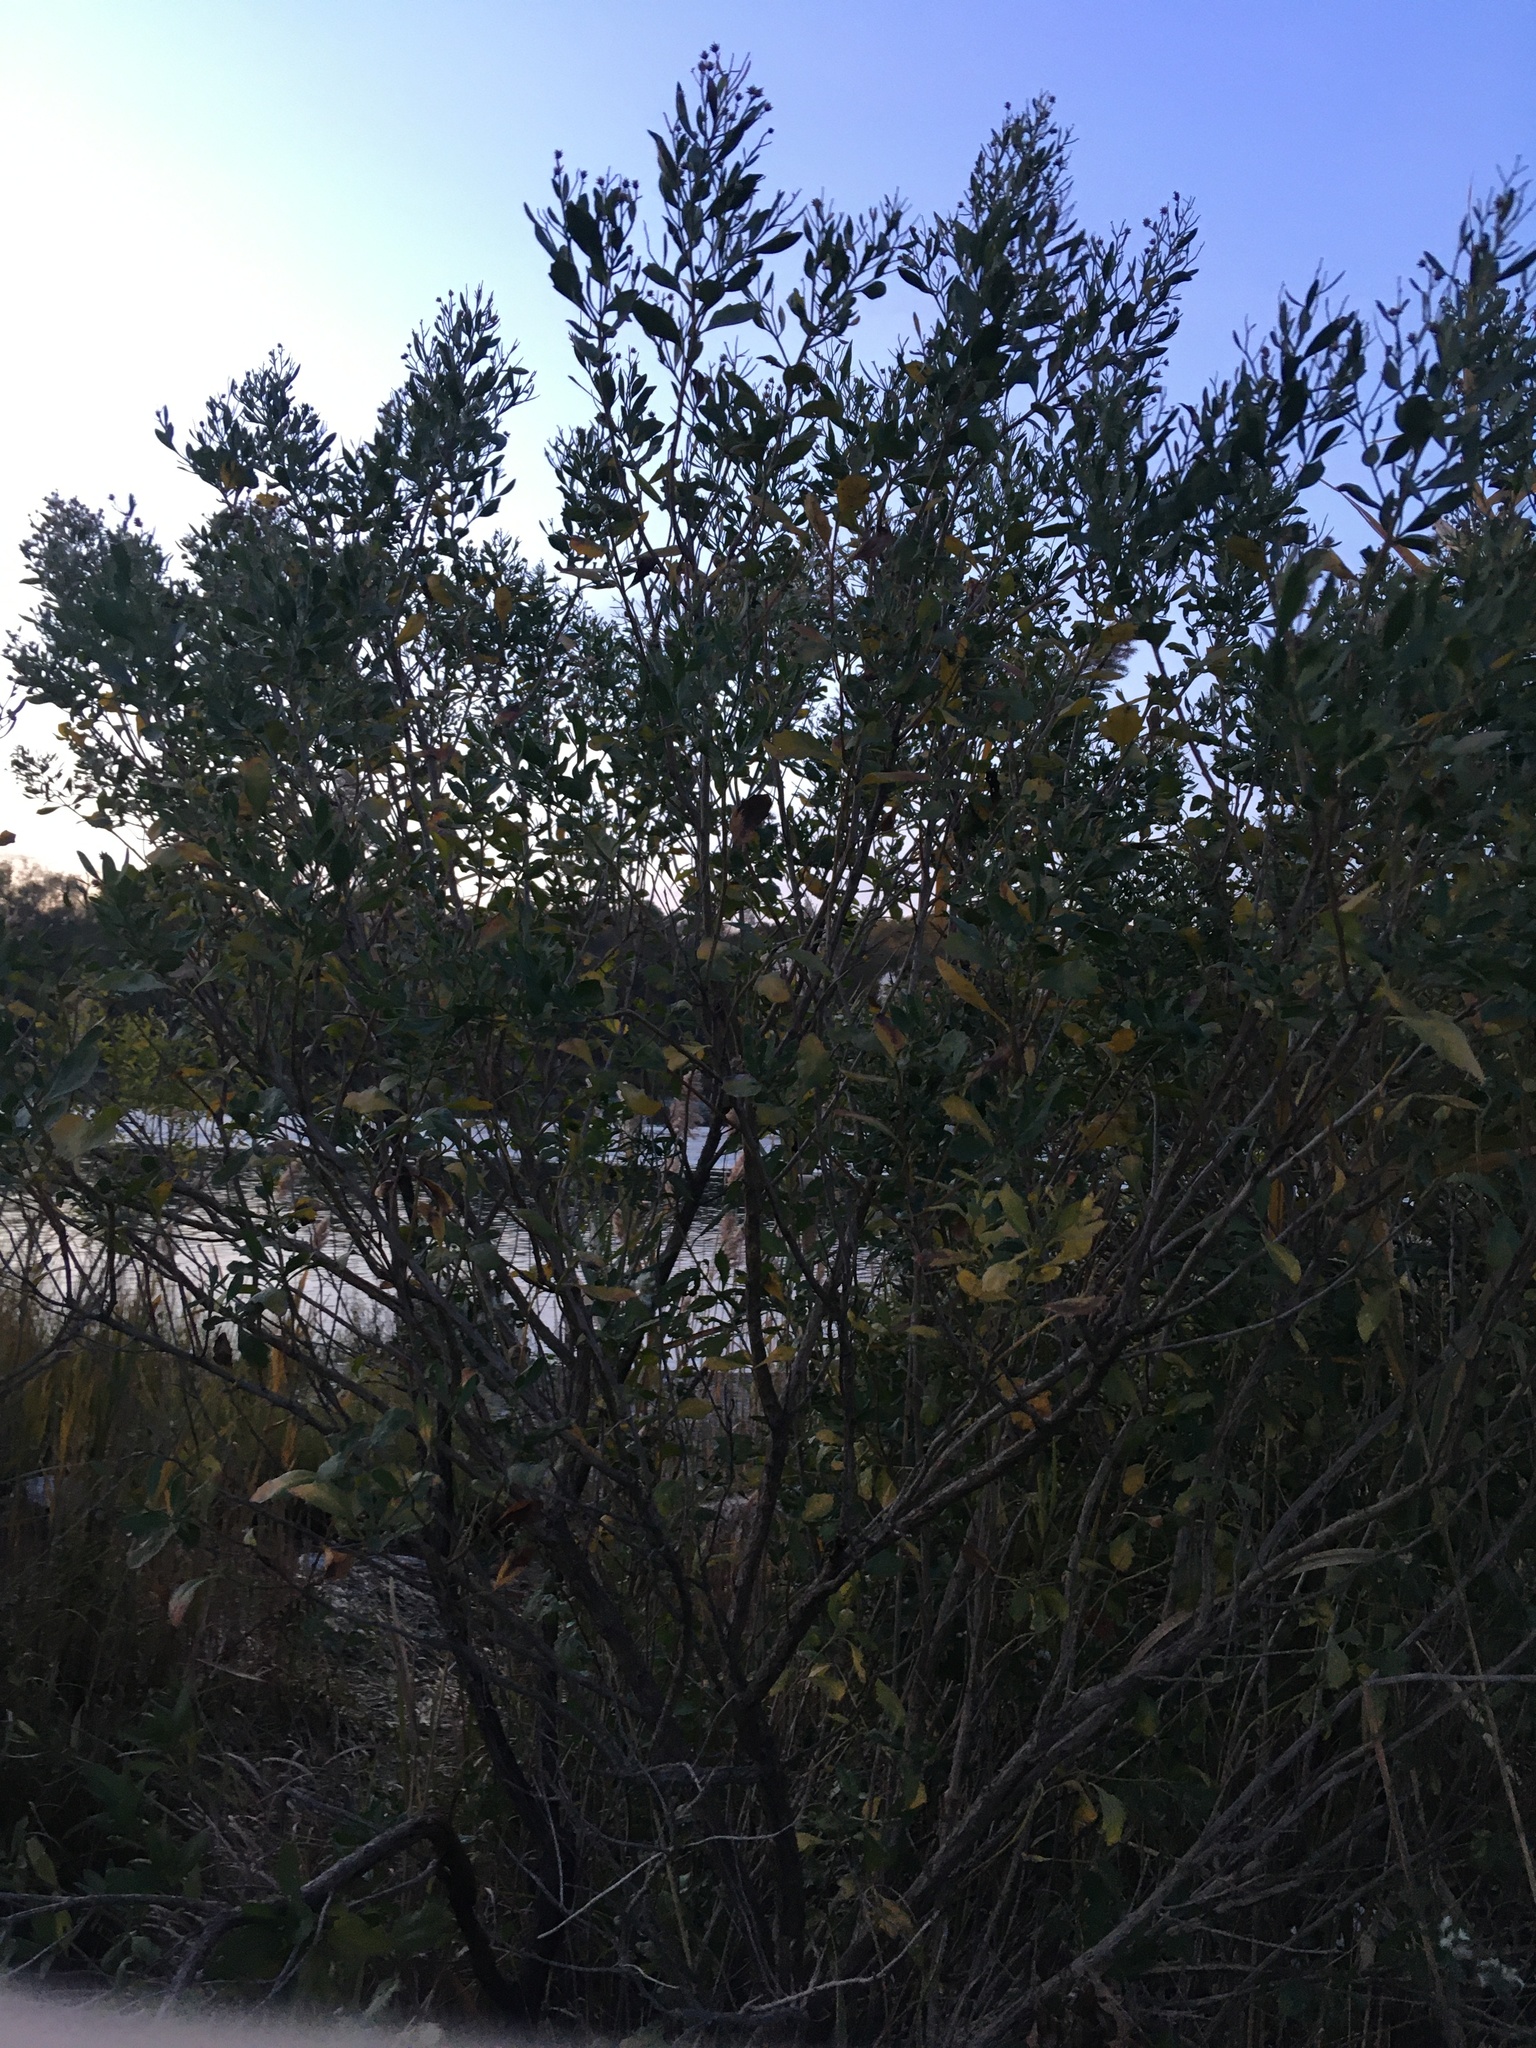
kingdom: Plantae
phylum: Tracheophyta
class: Magnoliopsida
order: Asterales
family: Asteraceae
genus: Baccharis
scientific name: Baccharis halimifolia
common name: Eastern baccharis
